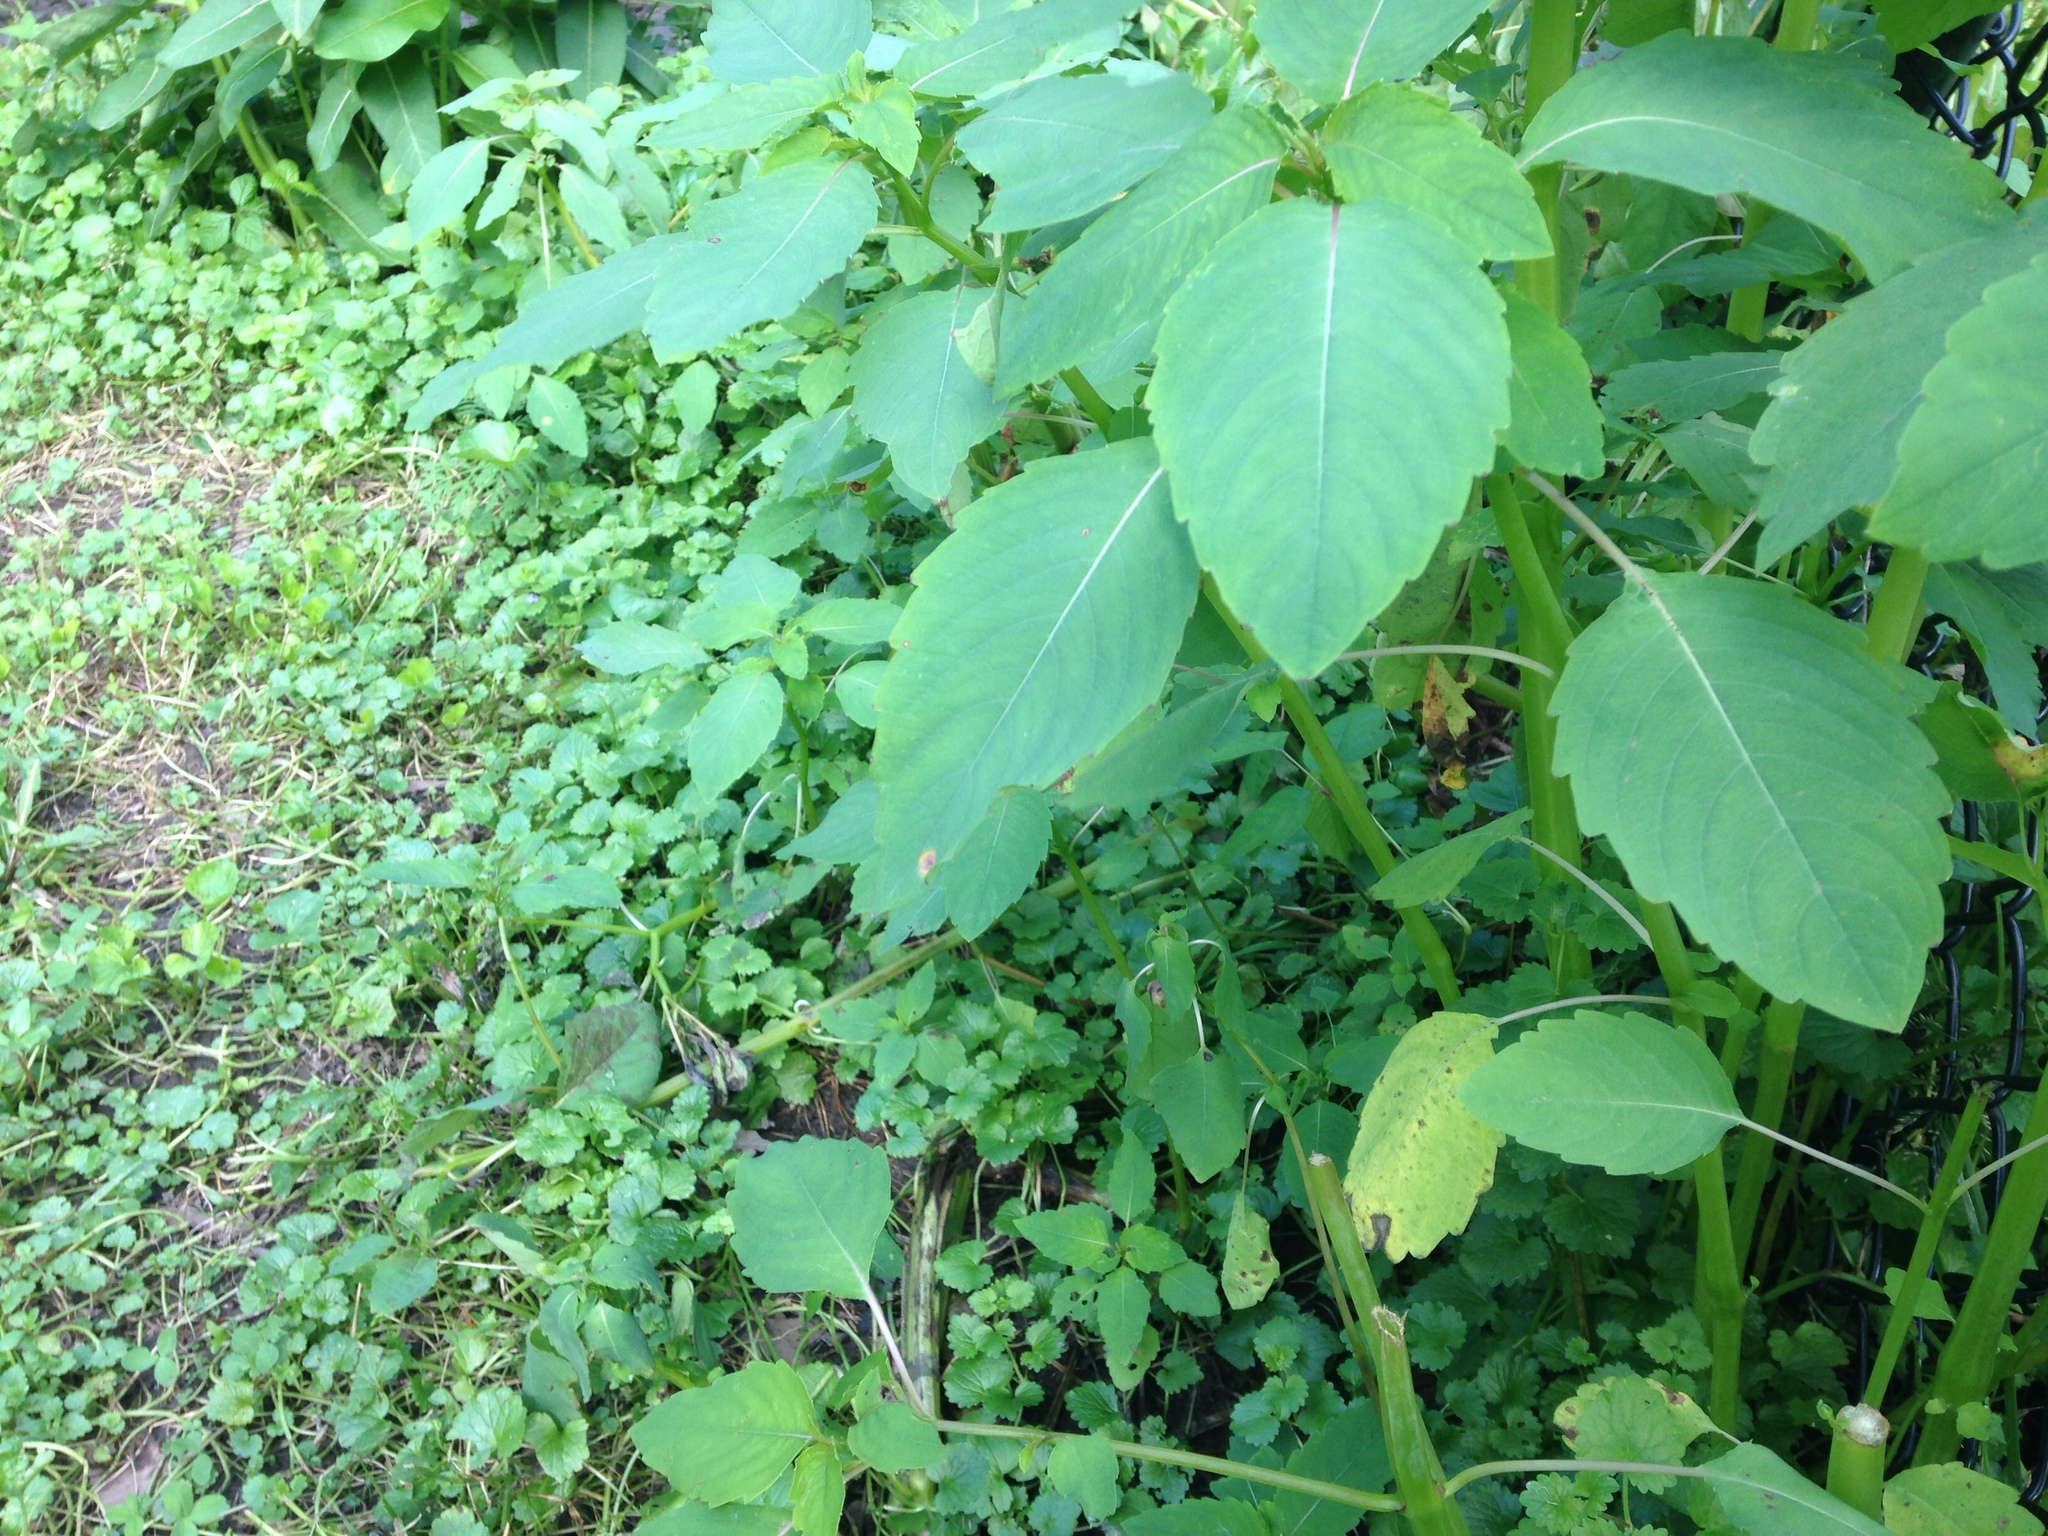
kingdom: Plantae
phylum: Tracheophyta
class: Magnoliopsida
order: Ericales
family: Balsaminaceae
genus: Impatiens
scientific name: Impatiens capensis
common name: Orange balsam
